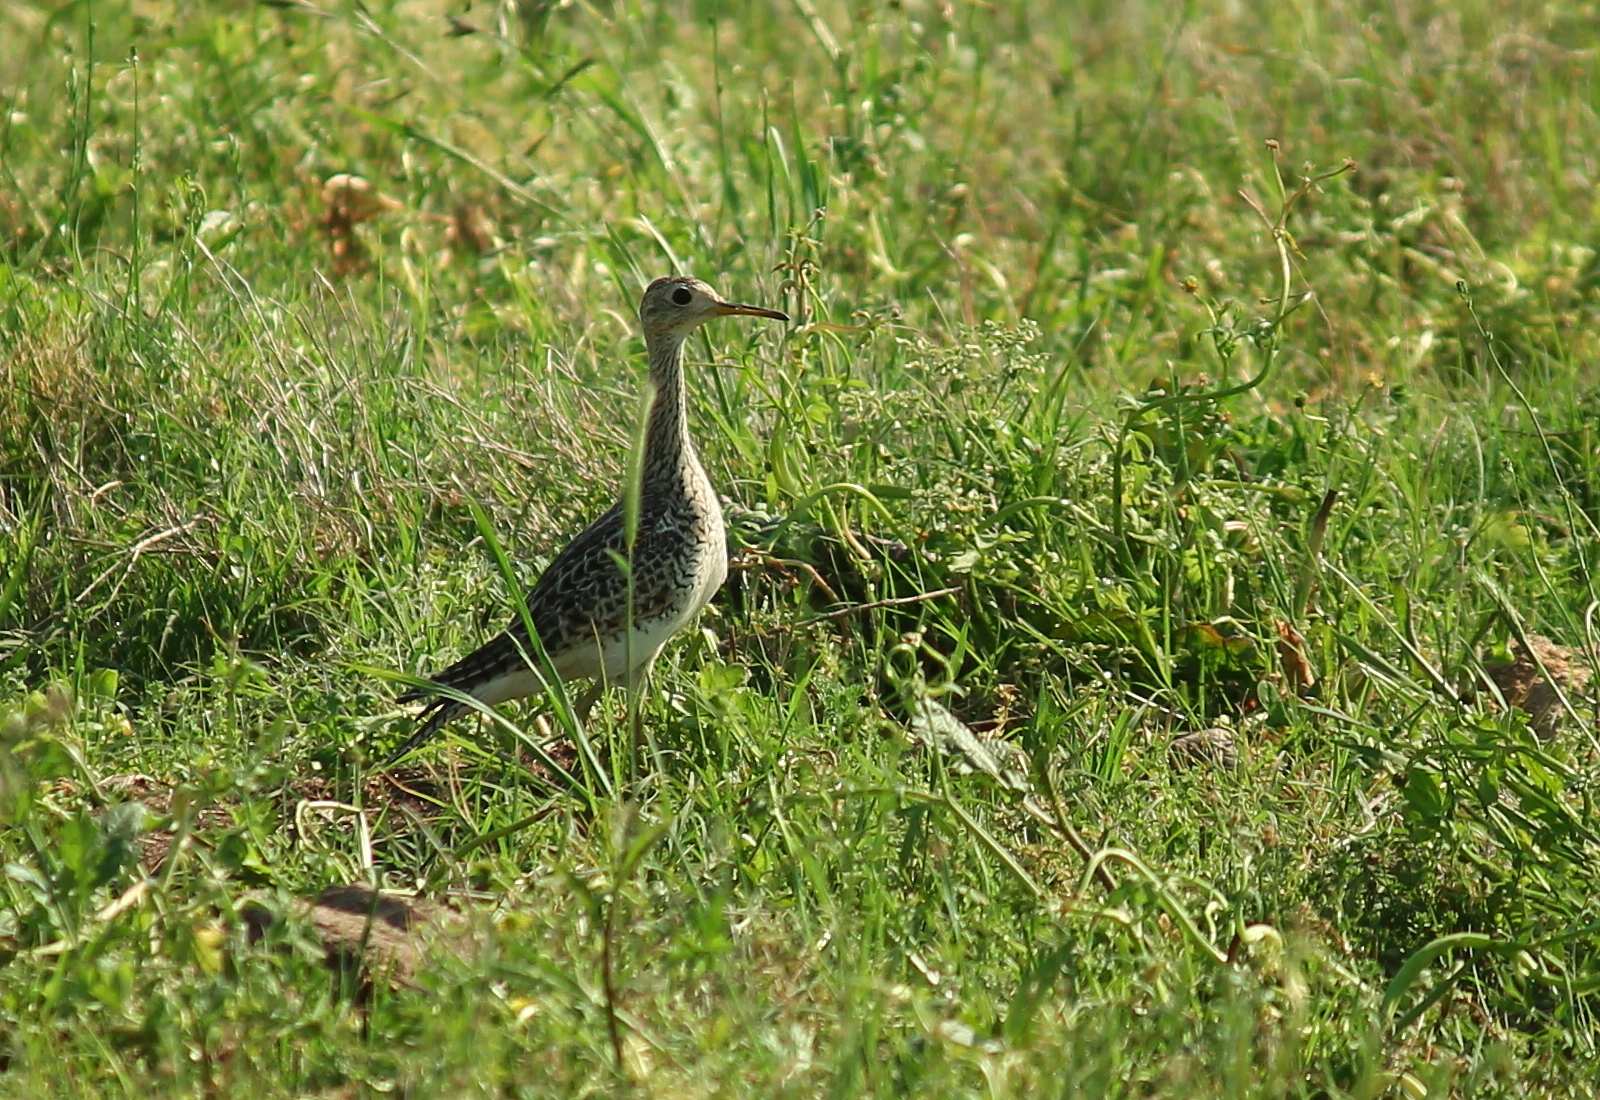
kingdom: Animalia
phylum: Chordata
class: Aves
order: Charadriiformes
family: Scolopacidae
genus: Bartramia
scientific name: Bartramia longicauda
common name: Upland sandpiper
